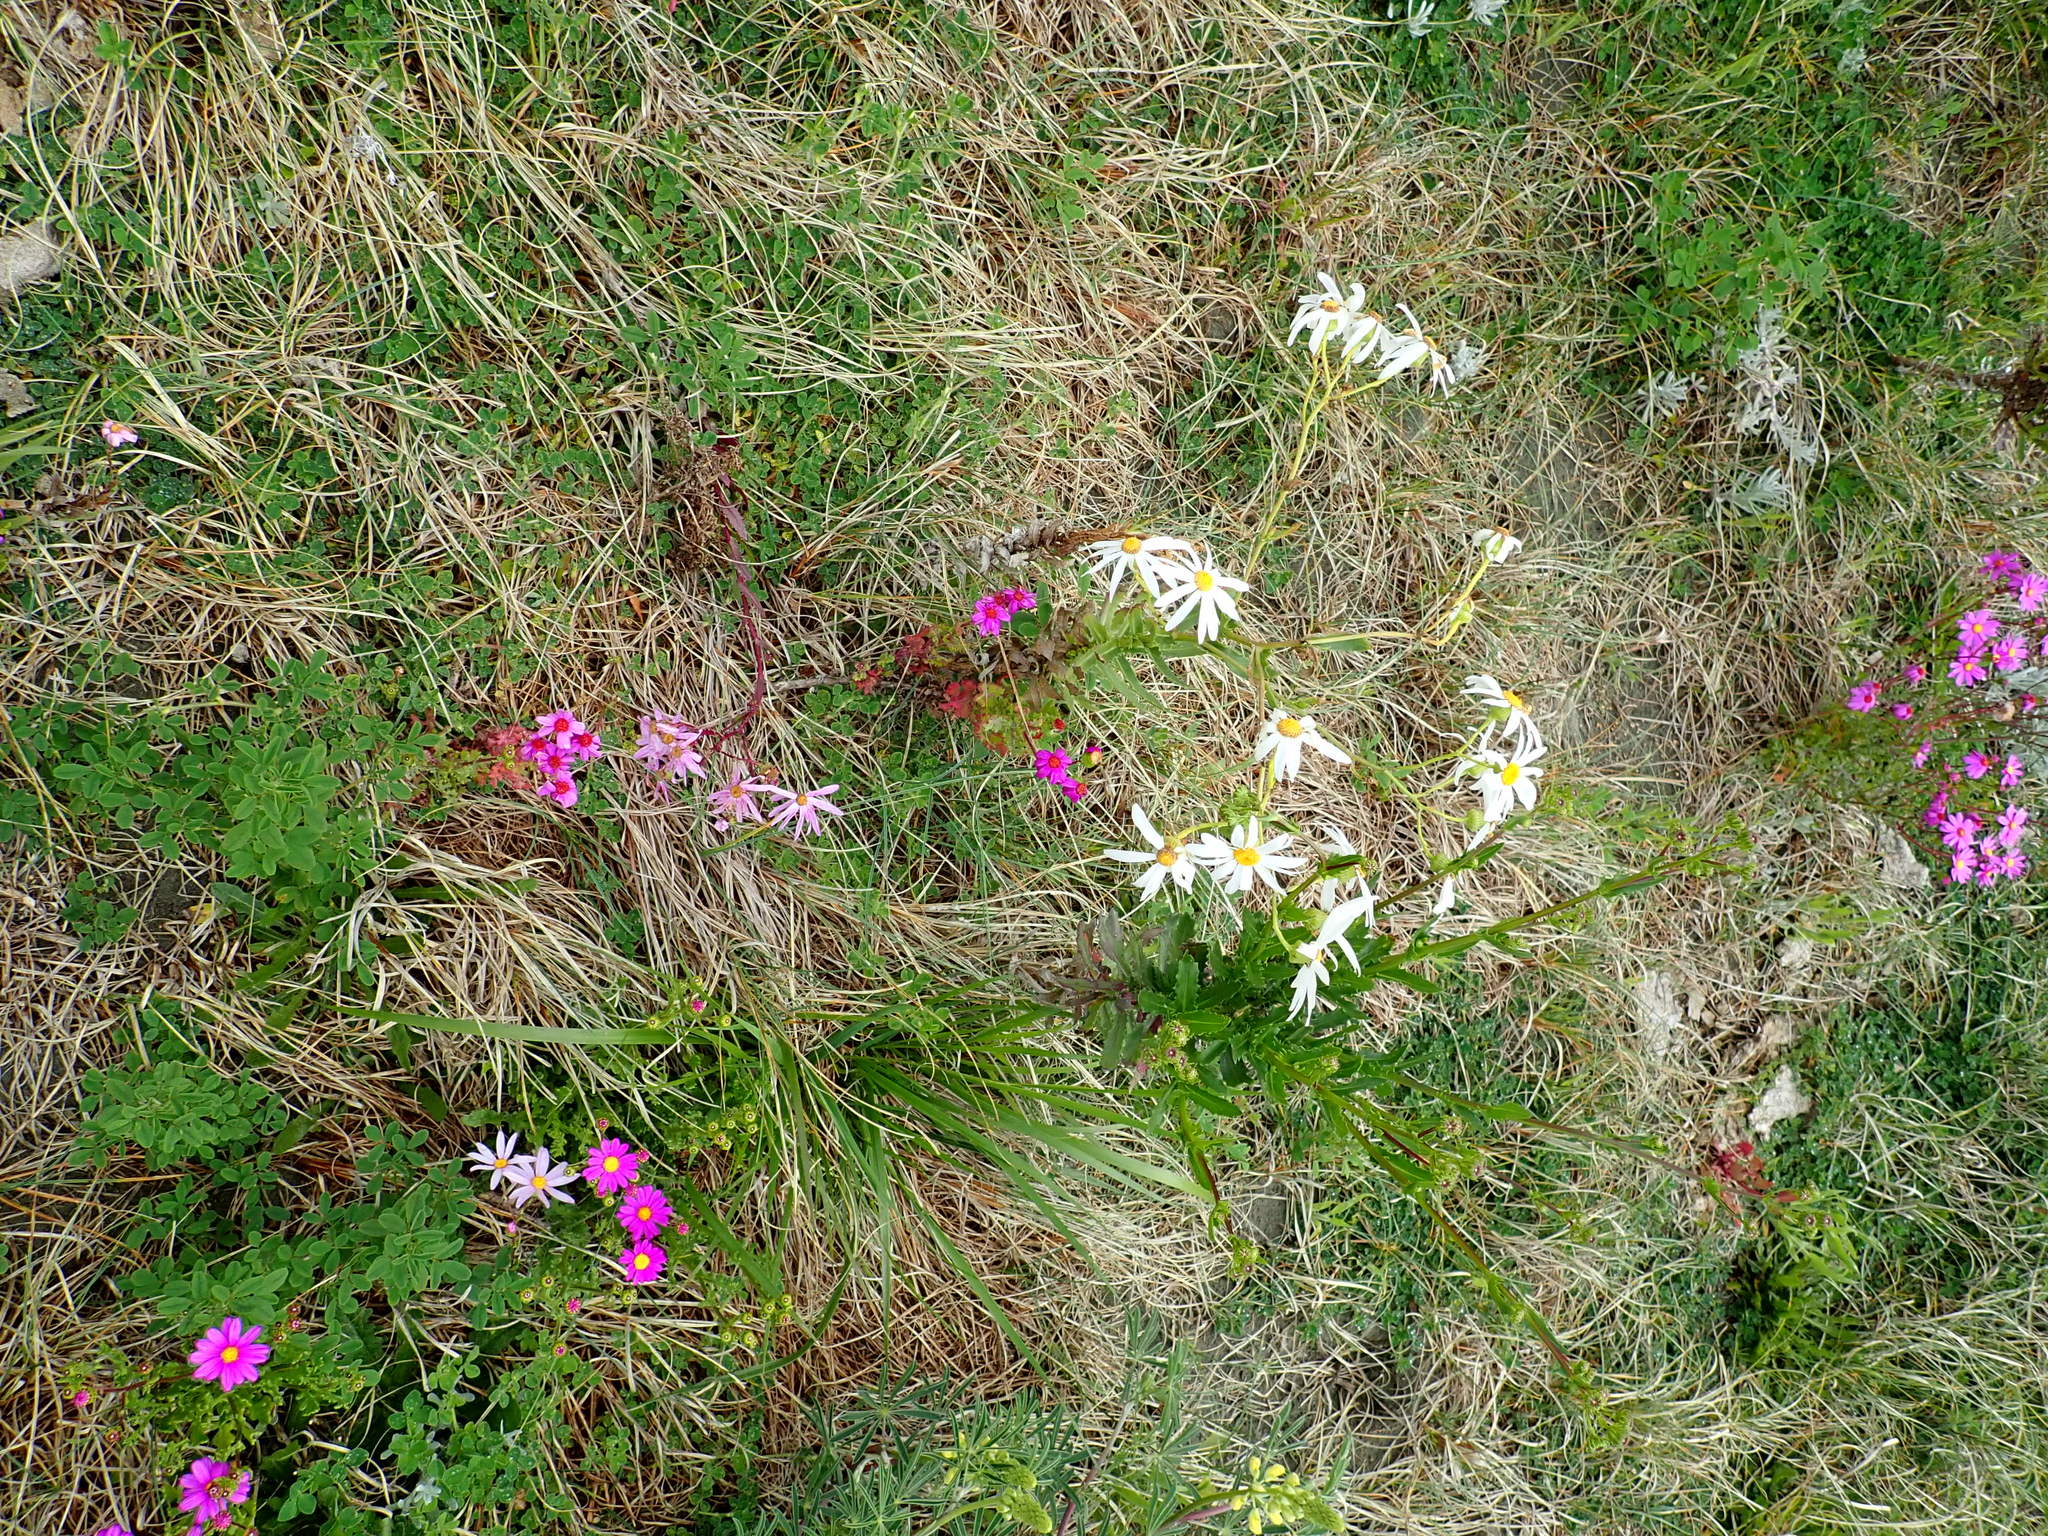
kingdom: Plantae
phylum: Tracheophyta
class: Magnoliopsida
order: Asterales
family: Asteraceae
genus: Senecio
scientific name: Senecio glastifolius
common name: Woad-leaved ragwort
